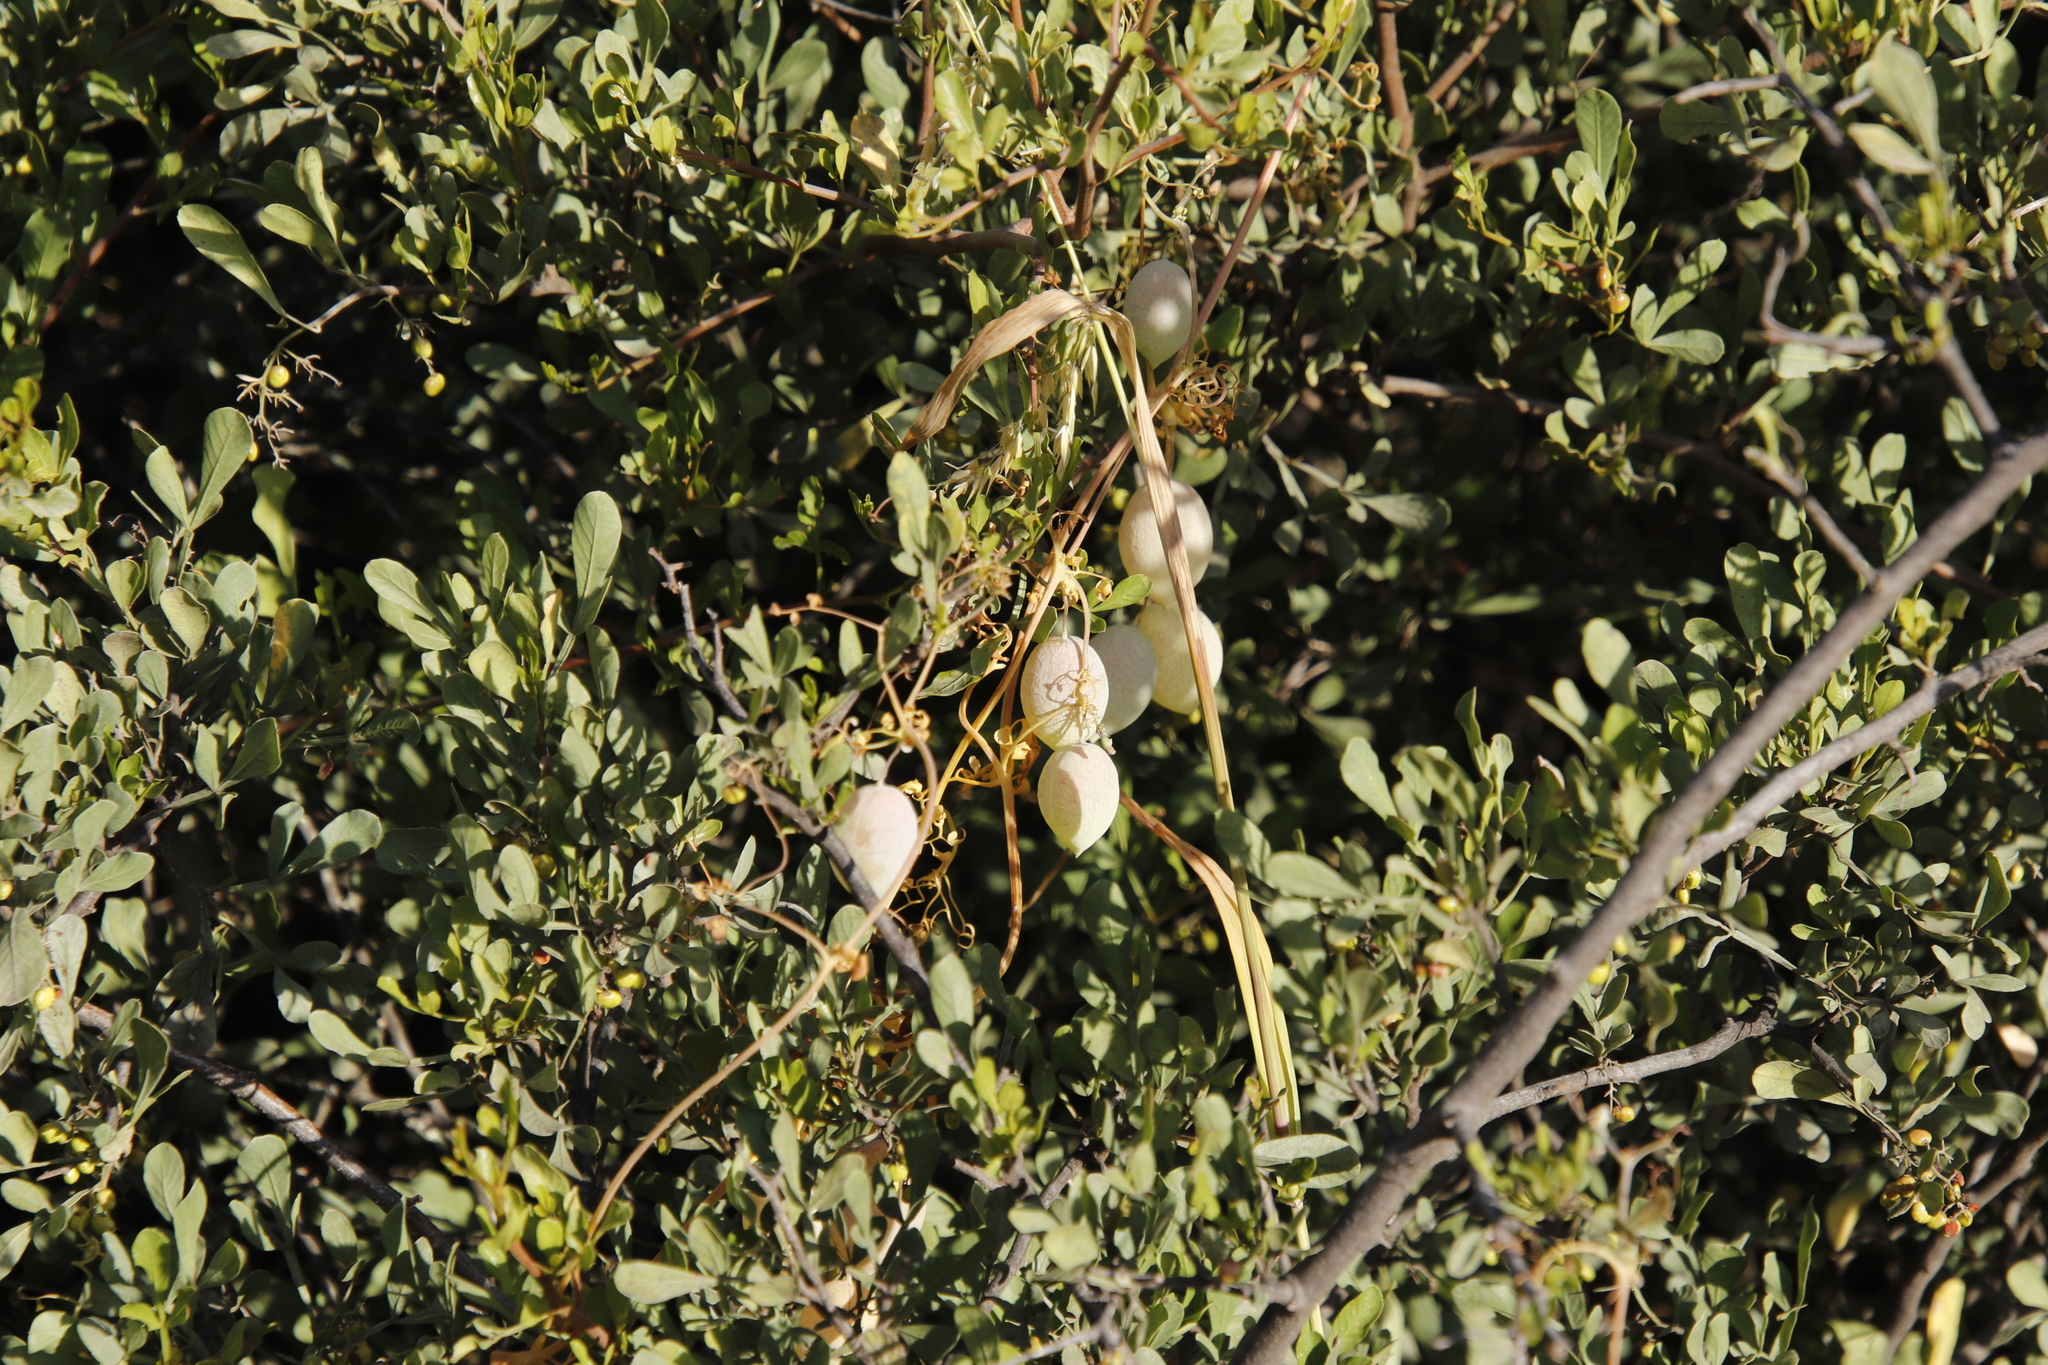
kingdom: Plantae
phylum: Tracheophyta
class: Magnoliopsida
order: Ranunculales
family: Papaveraceae
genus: Cysticapnos
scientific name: Cysticapnos vesicaria
